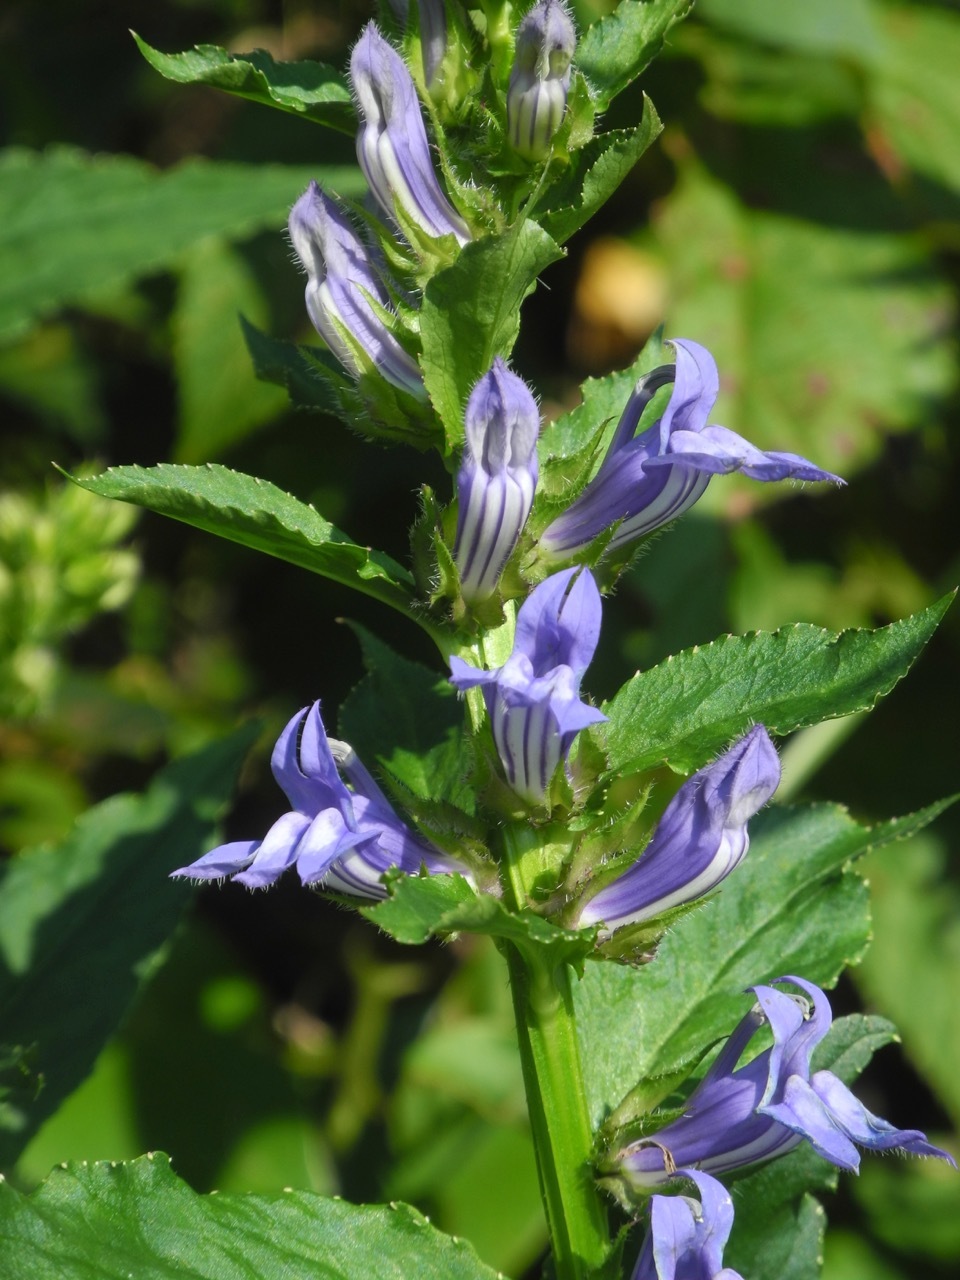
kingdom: Plantae
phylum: Tracheophyta
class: Magnoliopsida
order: Asterales
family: Campanulaceae
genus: Lobelia
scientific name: Lobelia siphilitica
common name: Great lobelia
